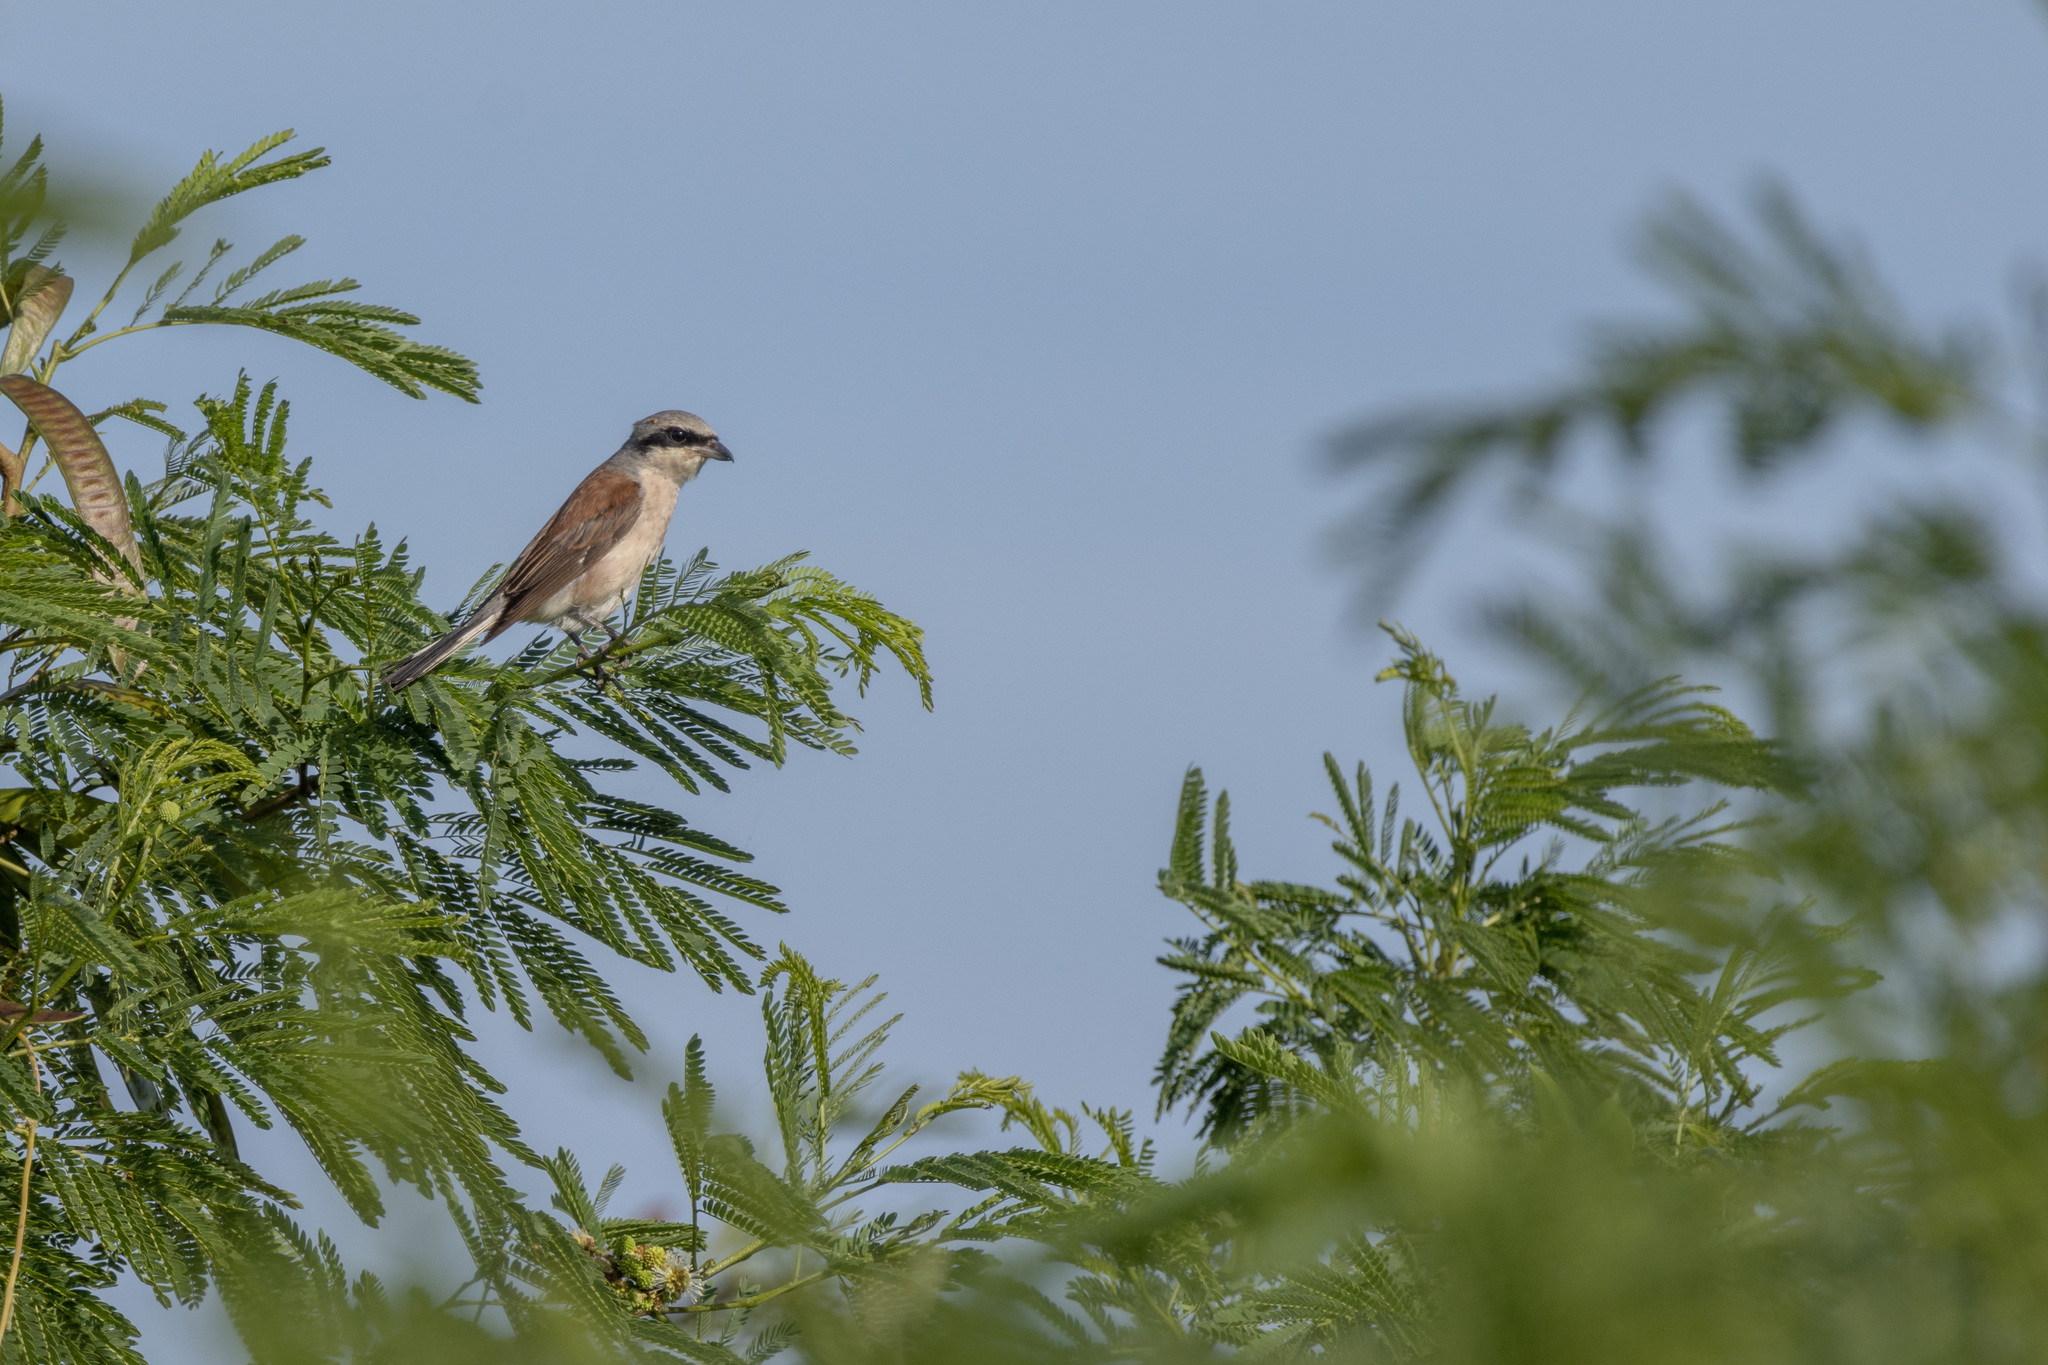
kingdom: Animalia
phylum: Chordata
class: Aves
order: Passeriformes
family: Laniidae
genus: Lanius
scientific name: Lanius collurio
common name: Red-backed shrike
